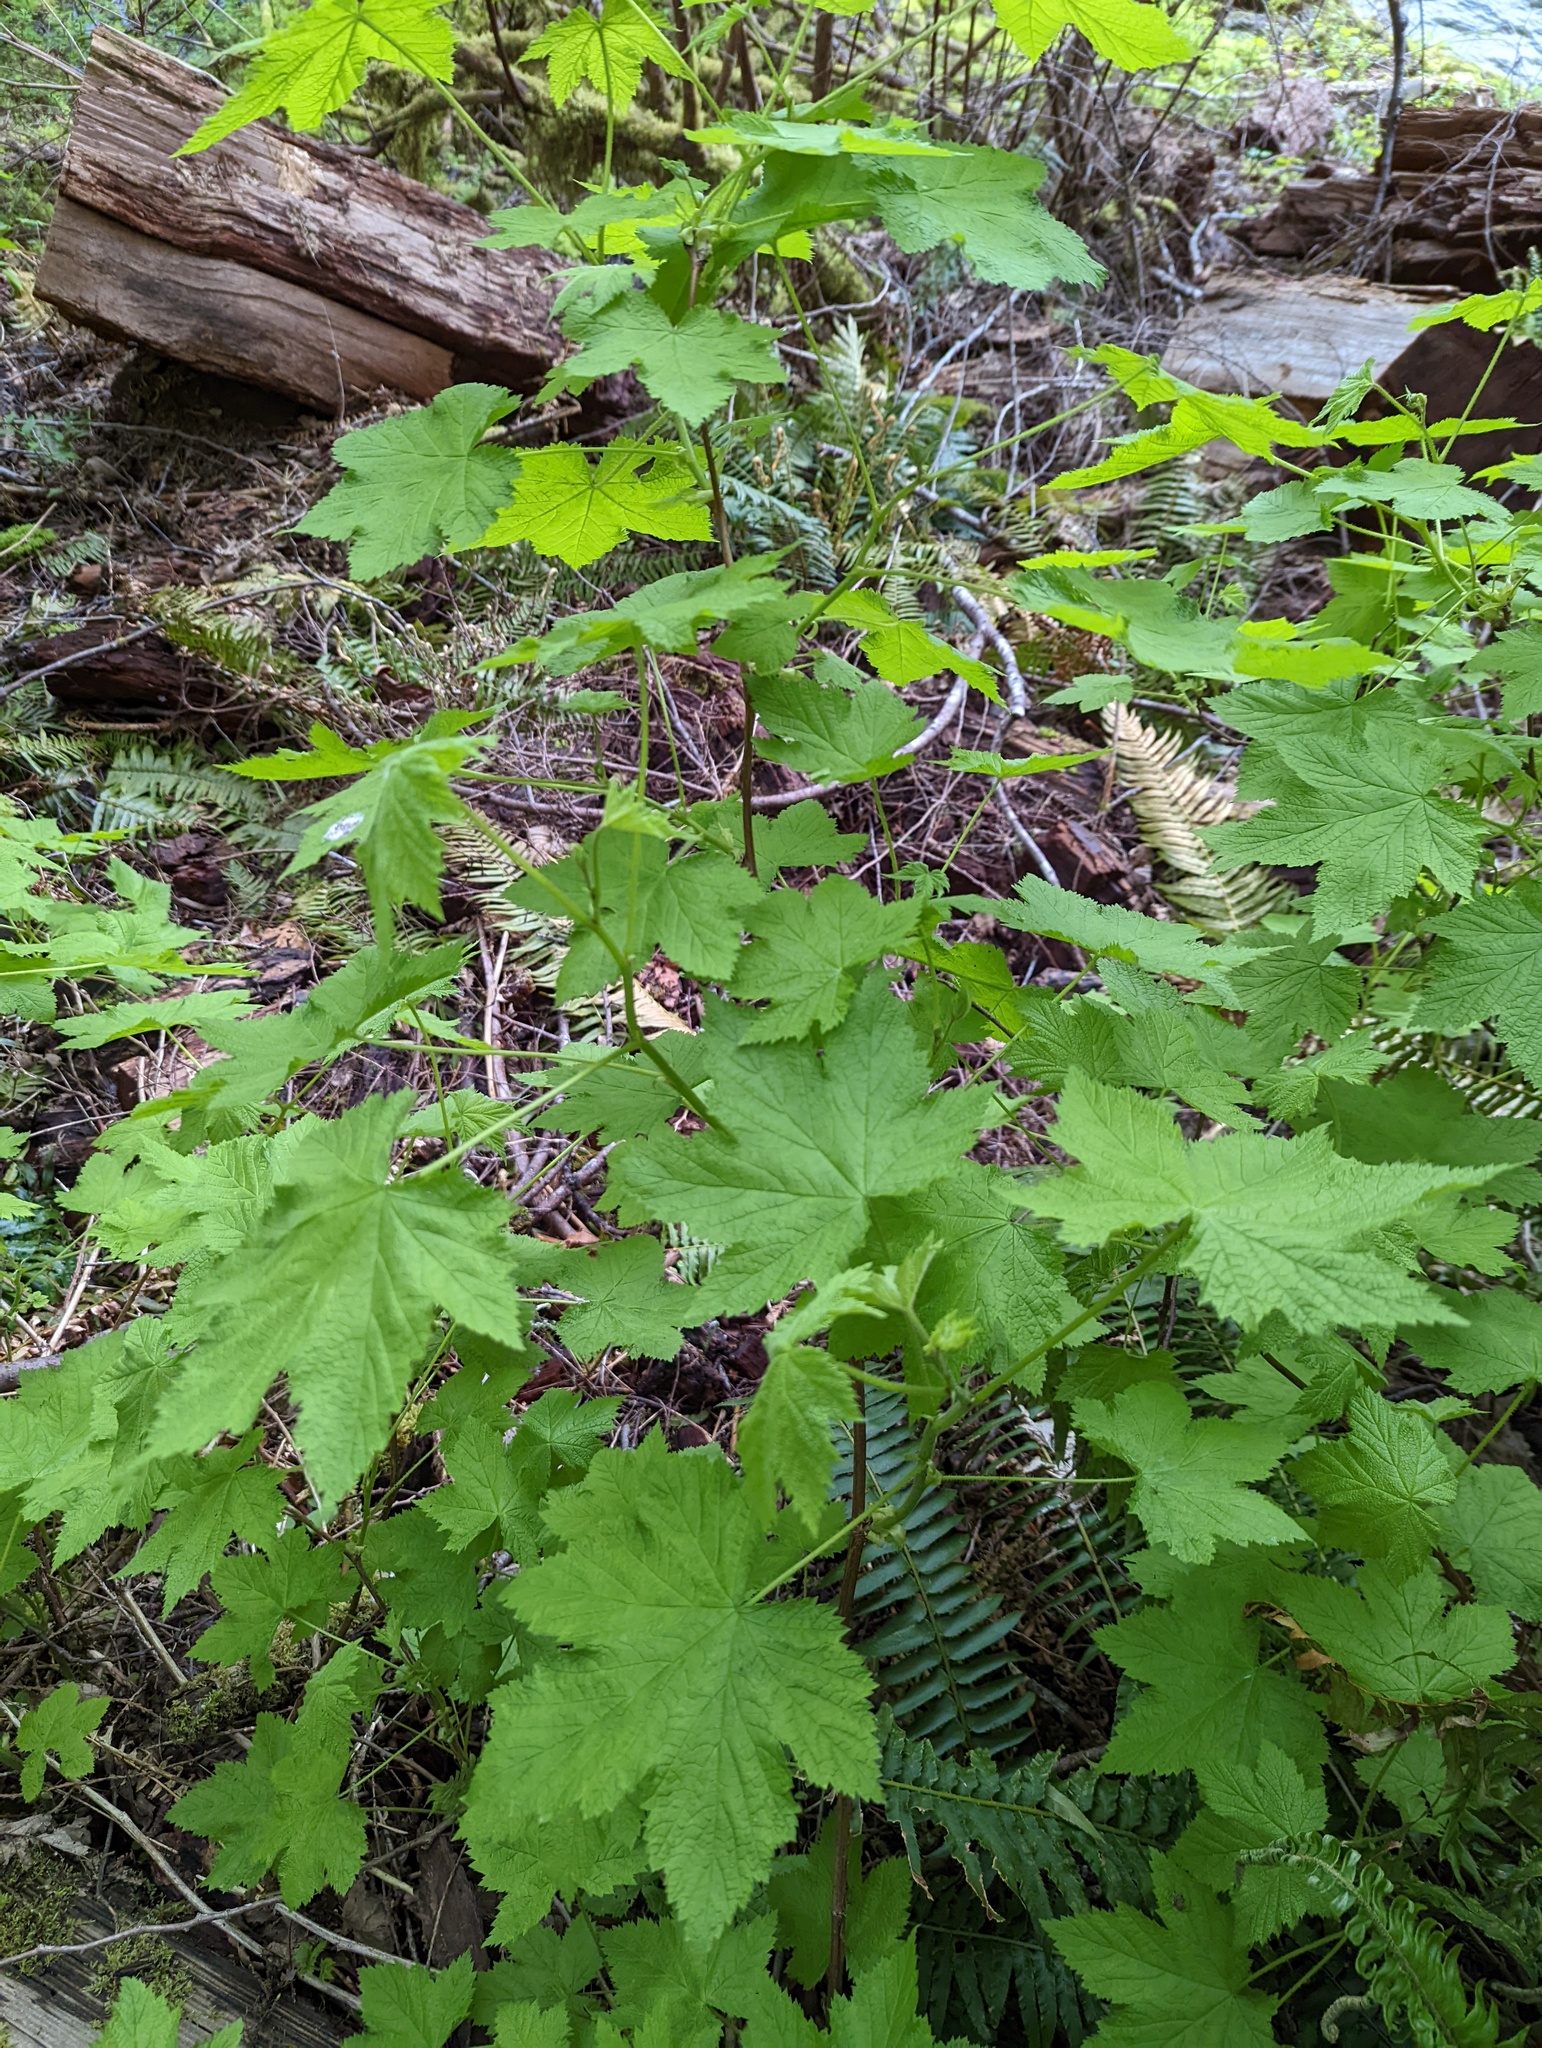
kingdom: Plantae
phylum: Tracheophyta
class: Magnoliopsida
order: Rosales
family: Rosaceae
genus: Rubus
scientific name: Rubus parviflorus
